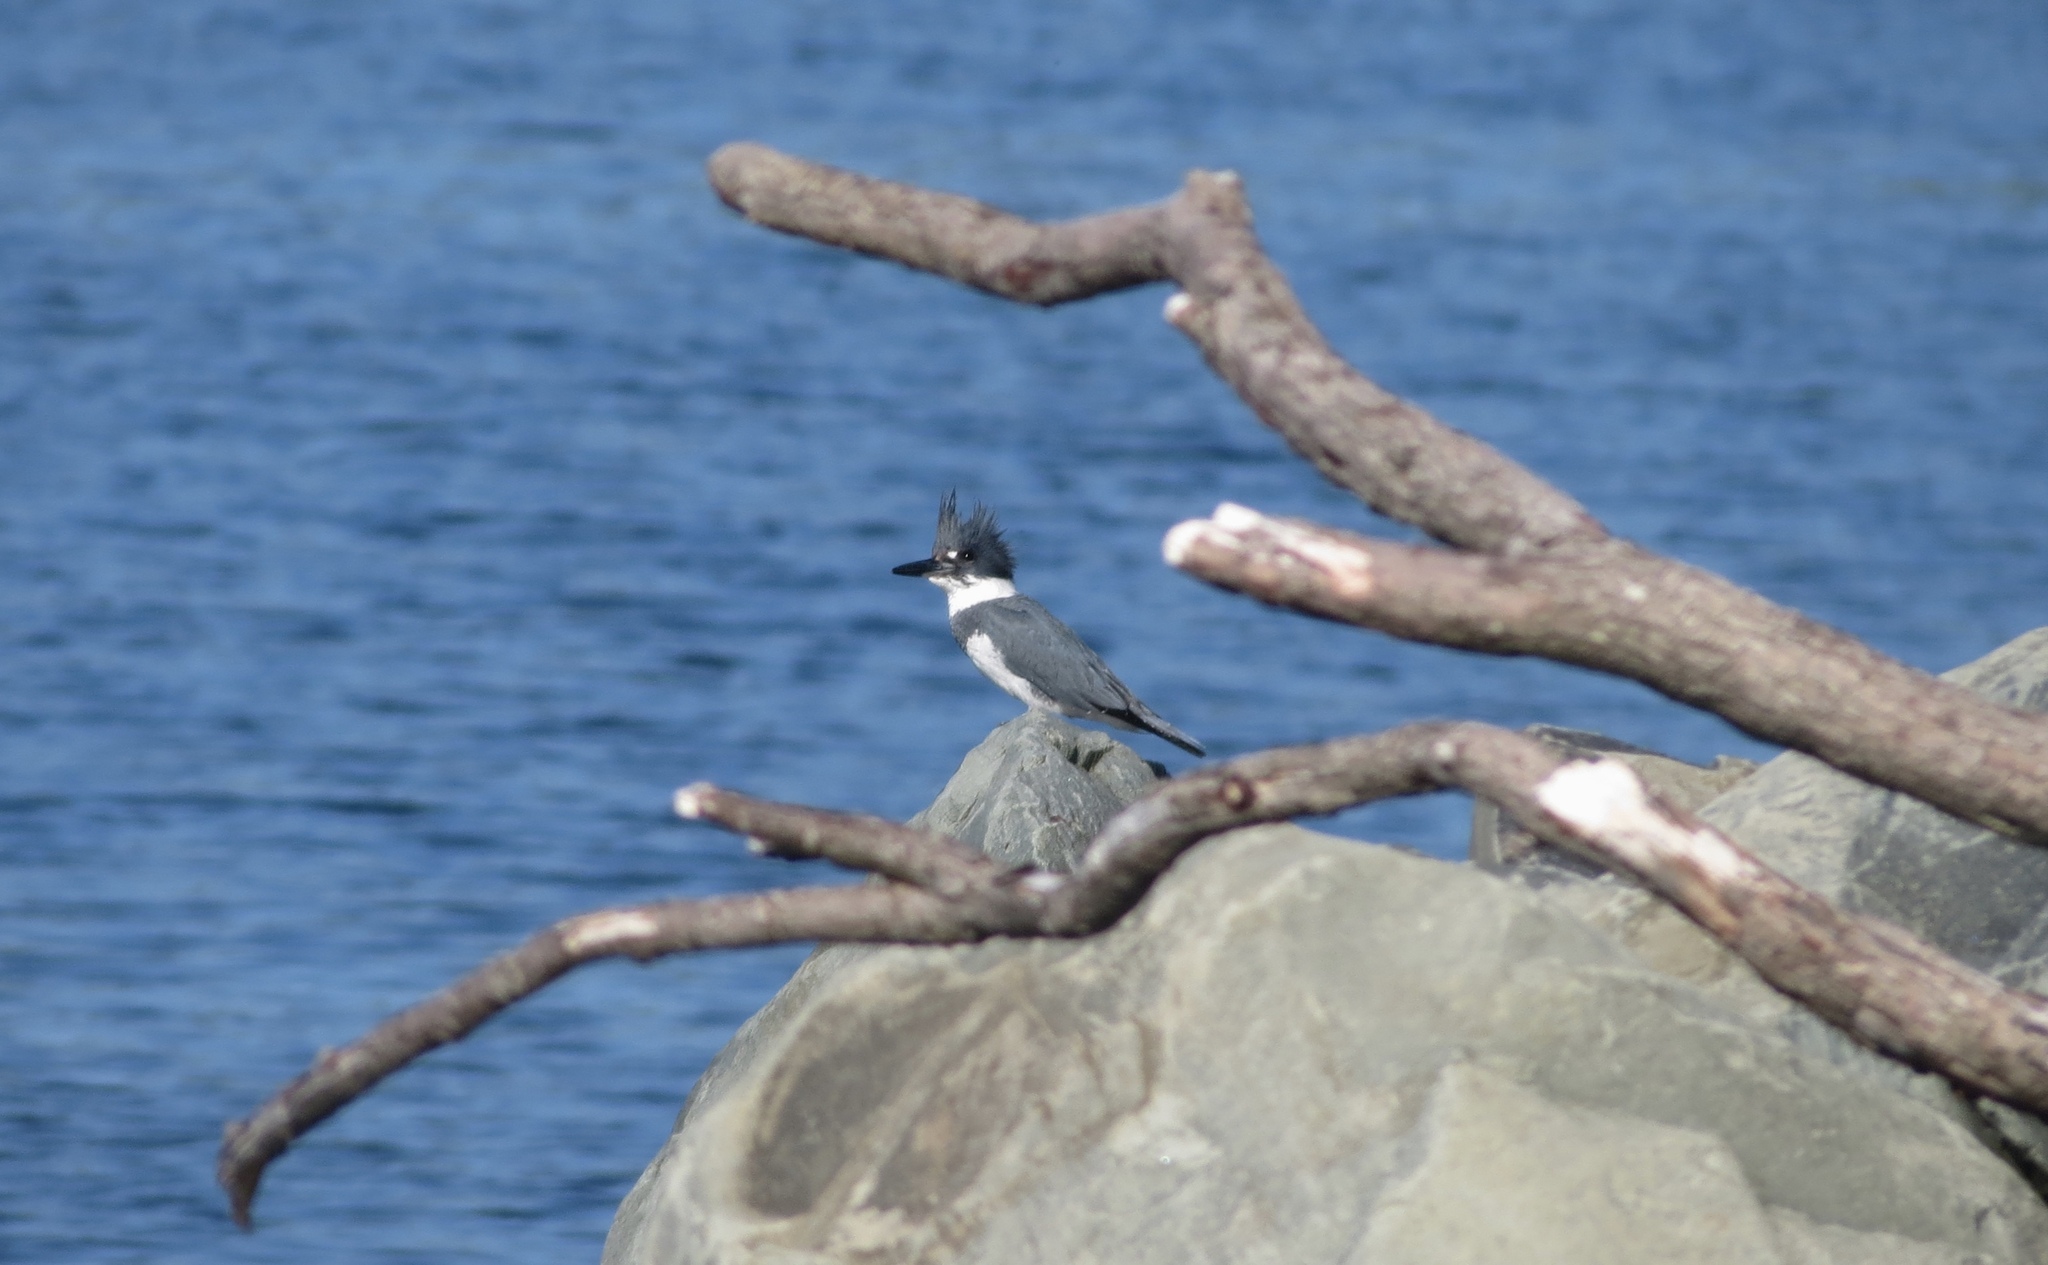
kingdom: Animalia
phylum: Chordata
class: Aves
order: Coraciiformes
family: Alcedinidae
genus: Megaceryle
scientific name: Megaceryle alcyon
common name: Belted kingfisher
